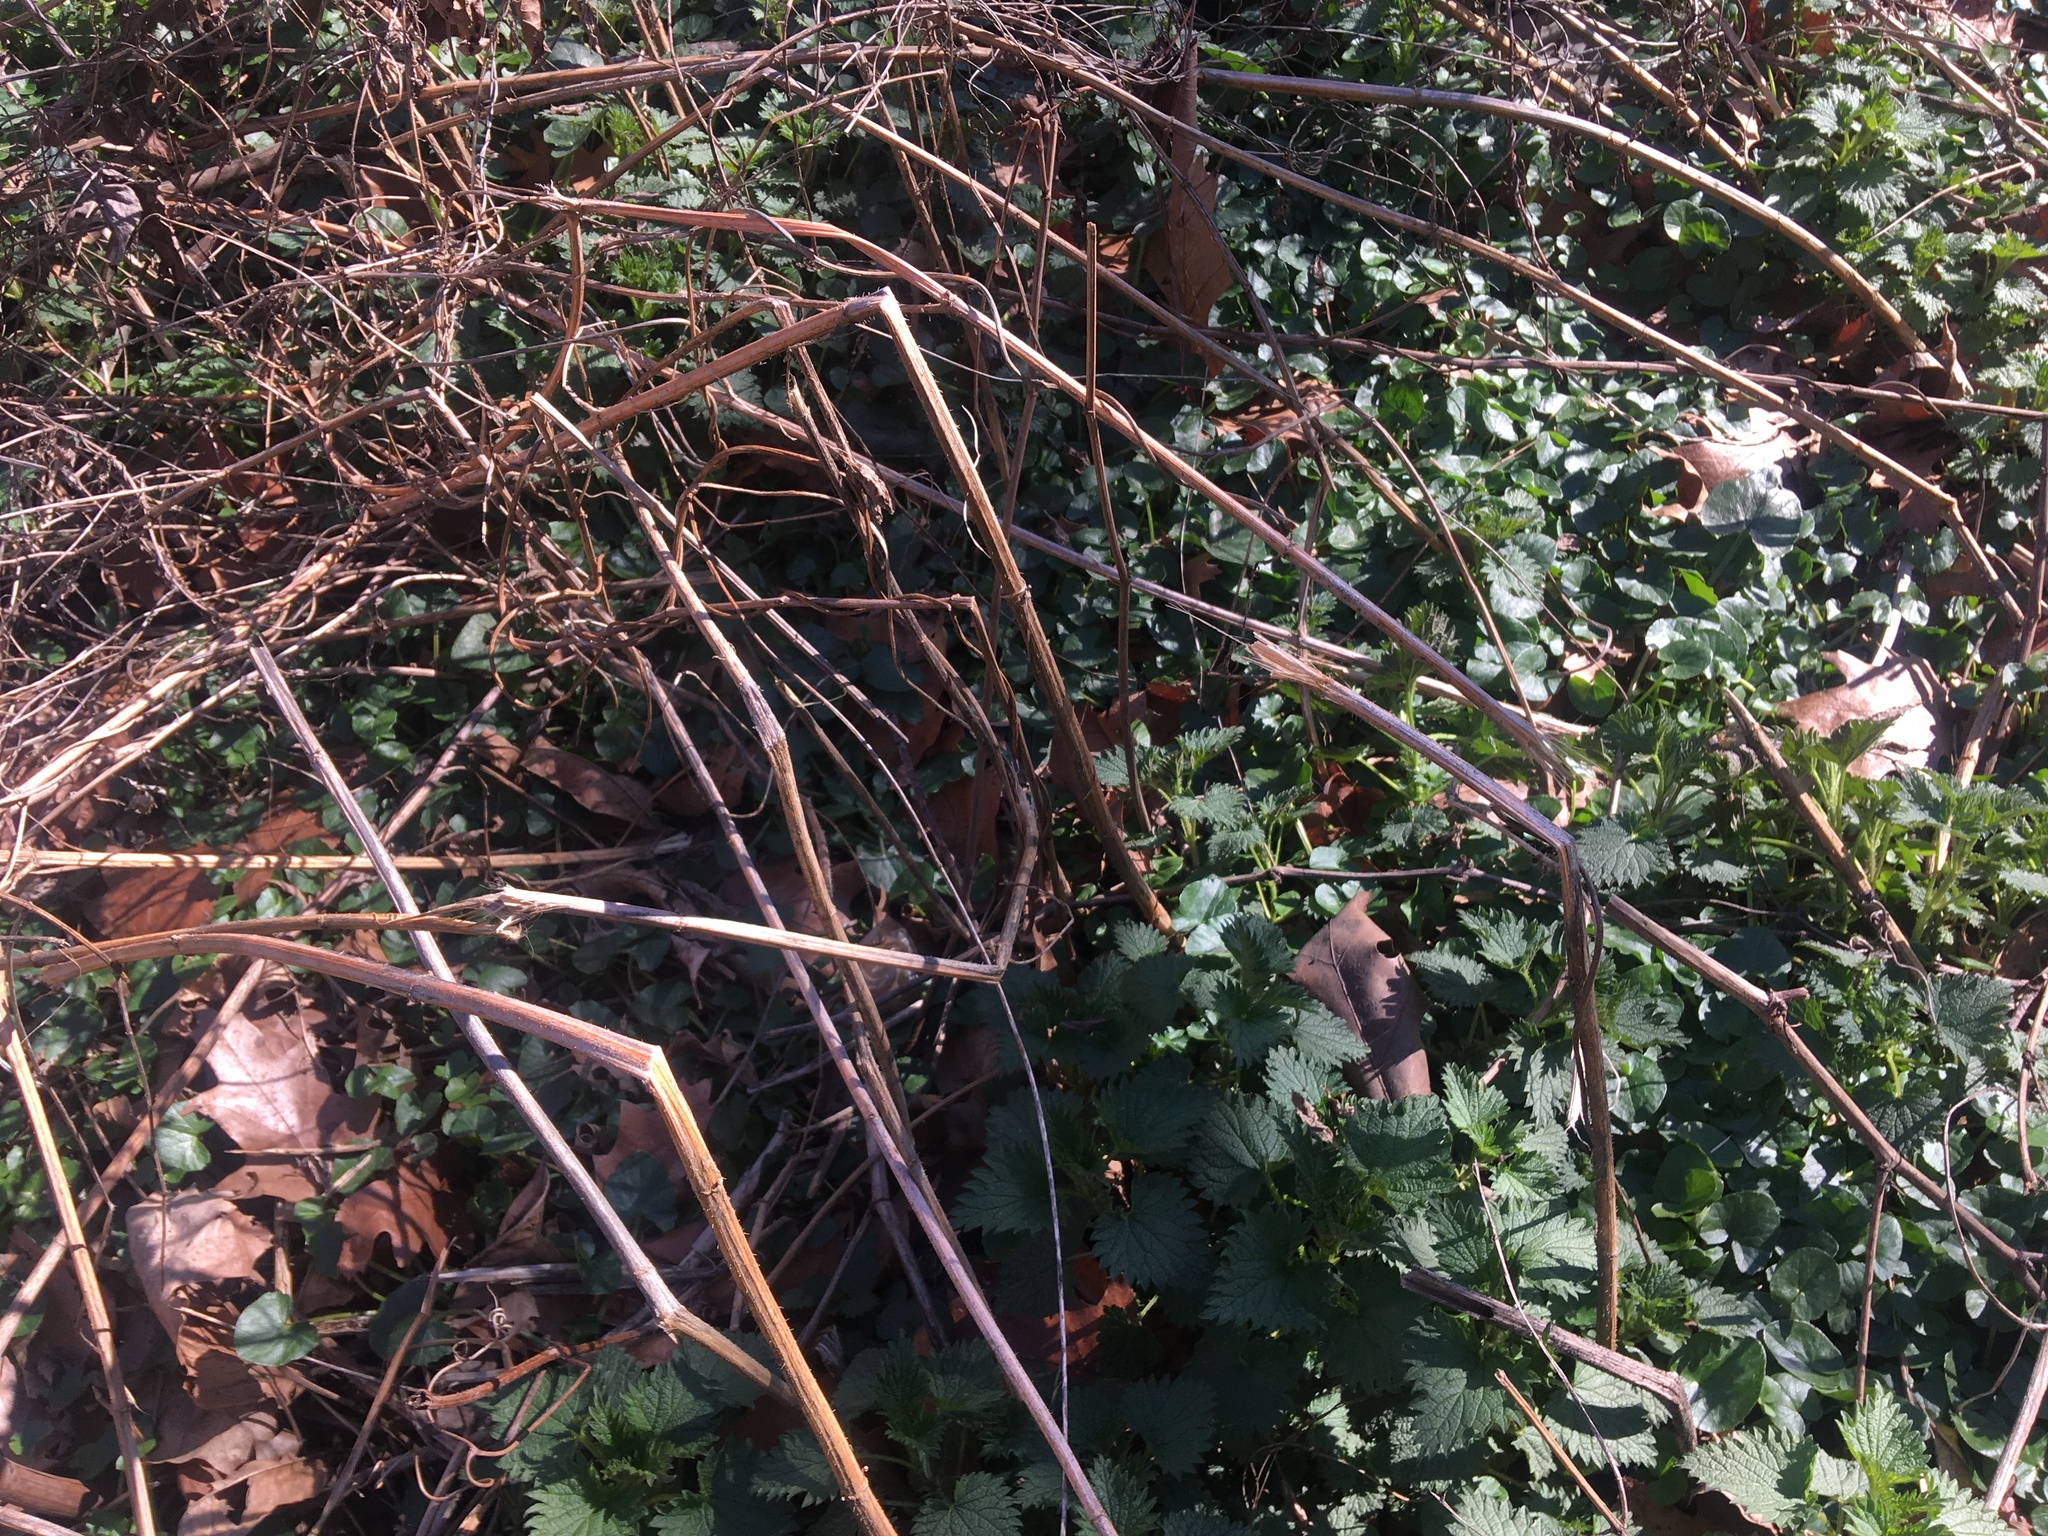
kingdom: Plantae
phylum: Tracheophyta
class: Magnoliopsida
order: Ranunculales
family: Ranunculaceae
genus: Ficaria
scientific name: Ficaria verna
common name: Lesser celandine
